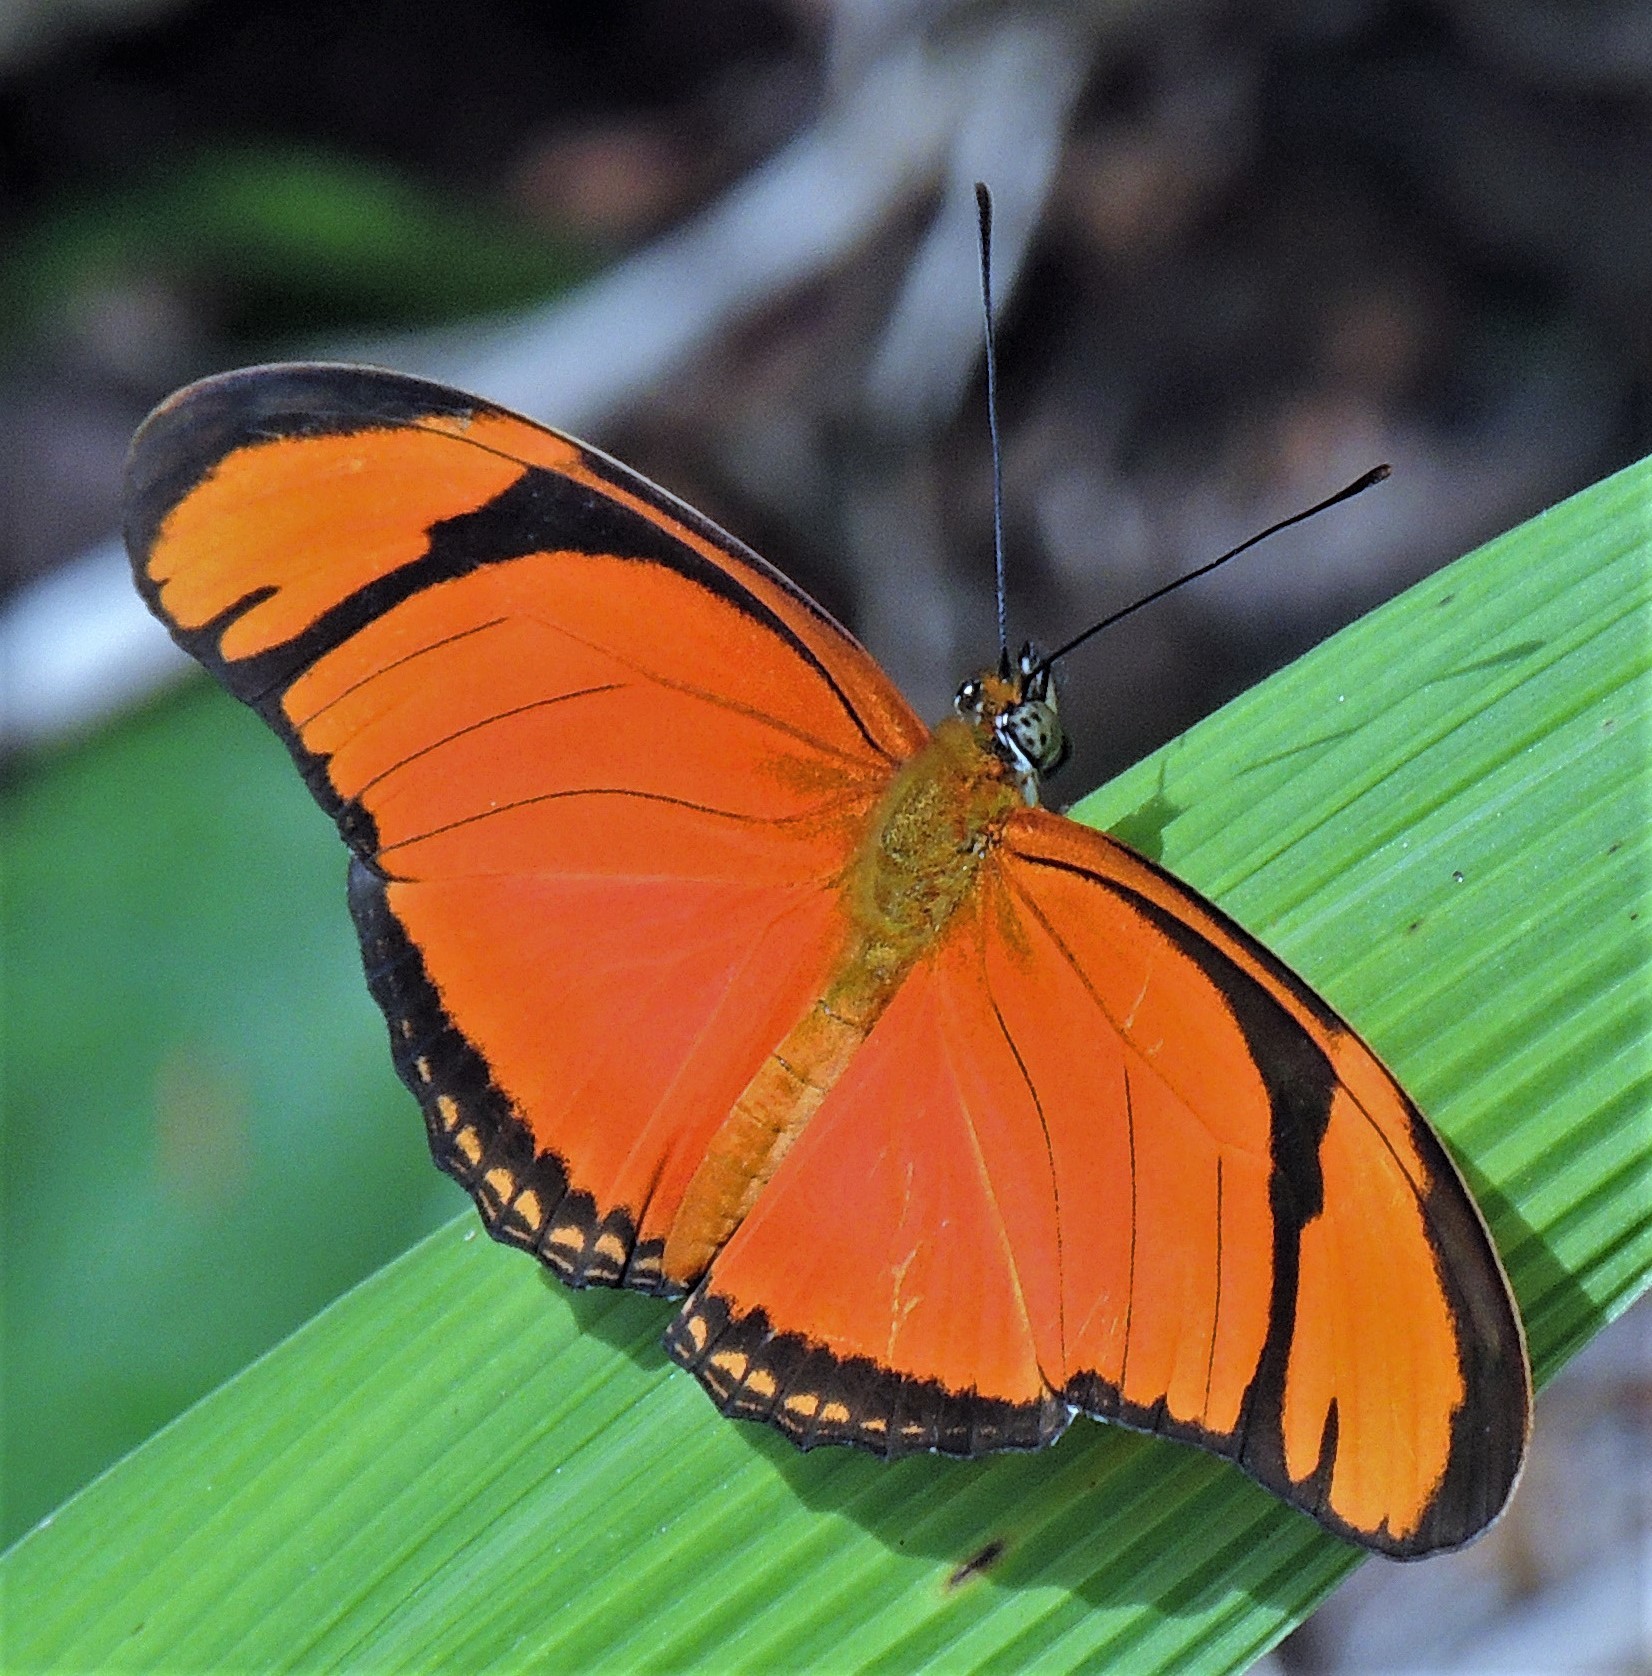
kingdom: Animalia
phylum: Arthropoda
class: Insecta
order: Lepidoptera
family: Nymphalidae
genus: Dryas
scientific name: Dryas iulia
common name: Flambeau
